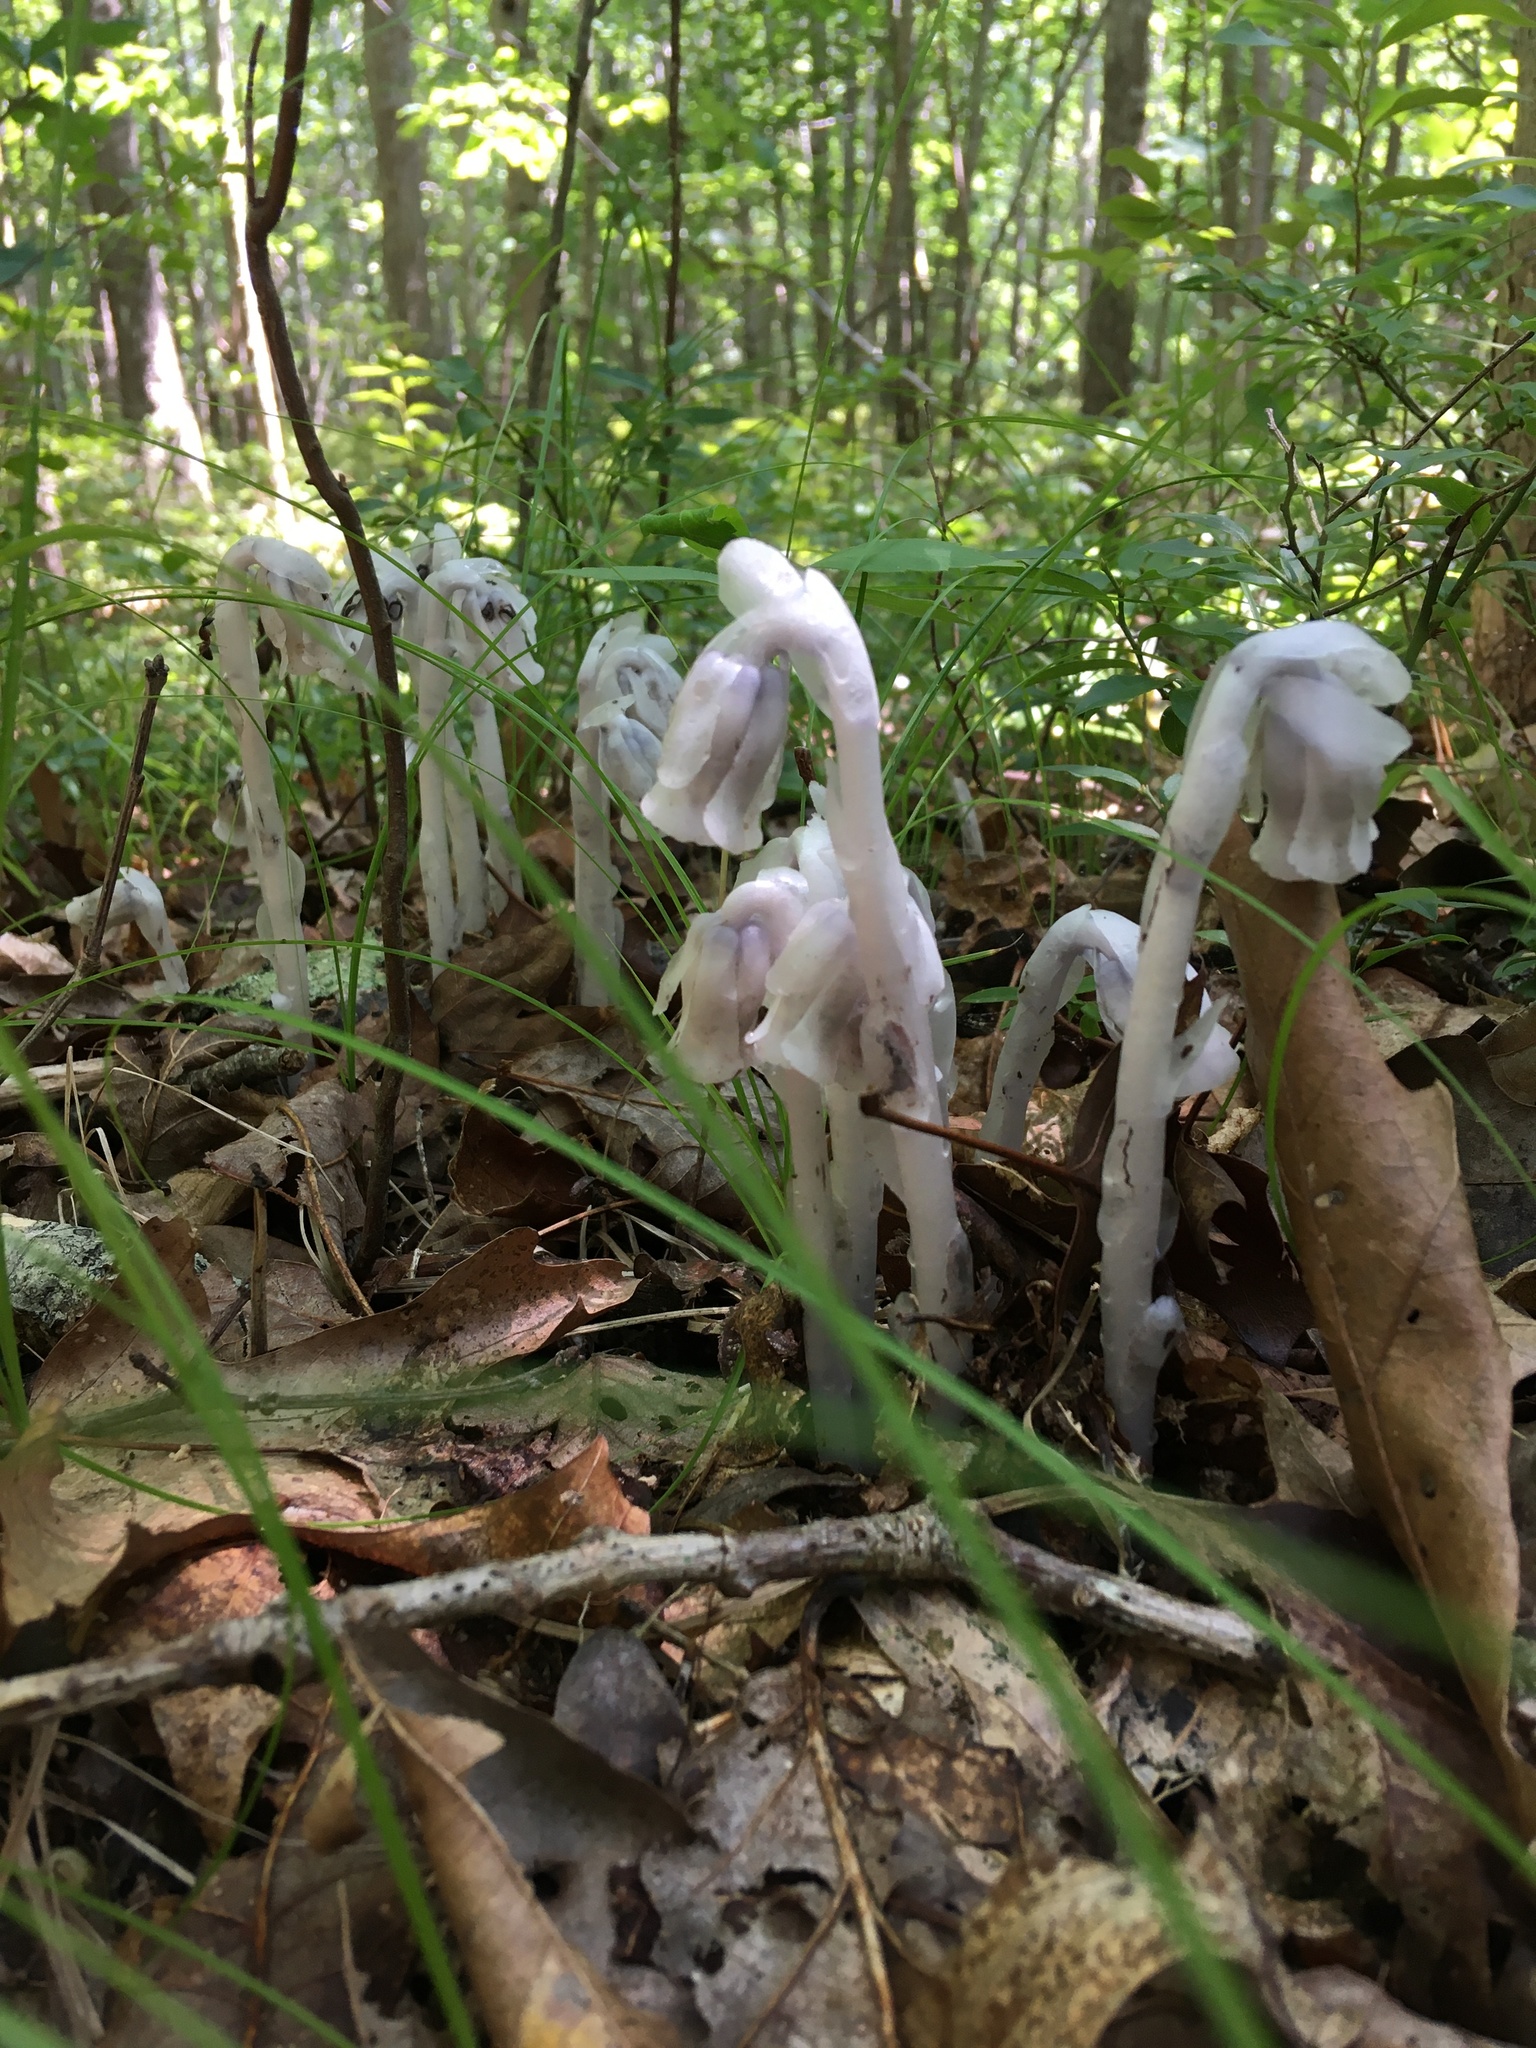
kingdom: Plantae
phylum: Tracheophyta
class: Magnoliopsida
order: Ericales
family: Ericaceae
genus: Monotropa
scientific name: Monotropa uniflora
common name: Convulsion root
